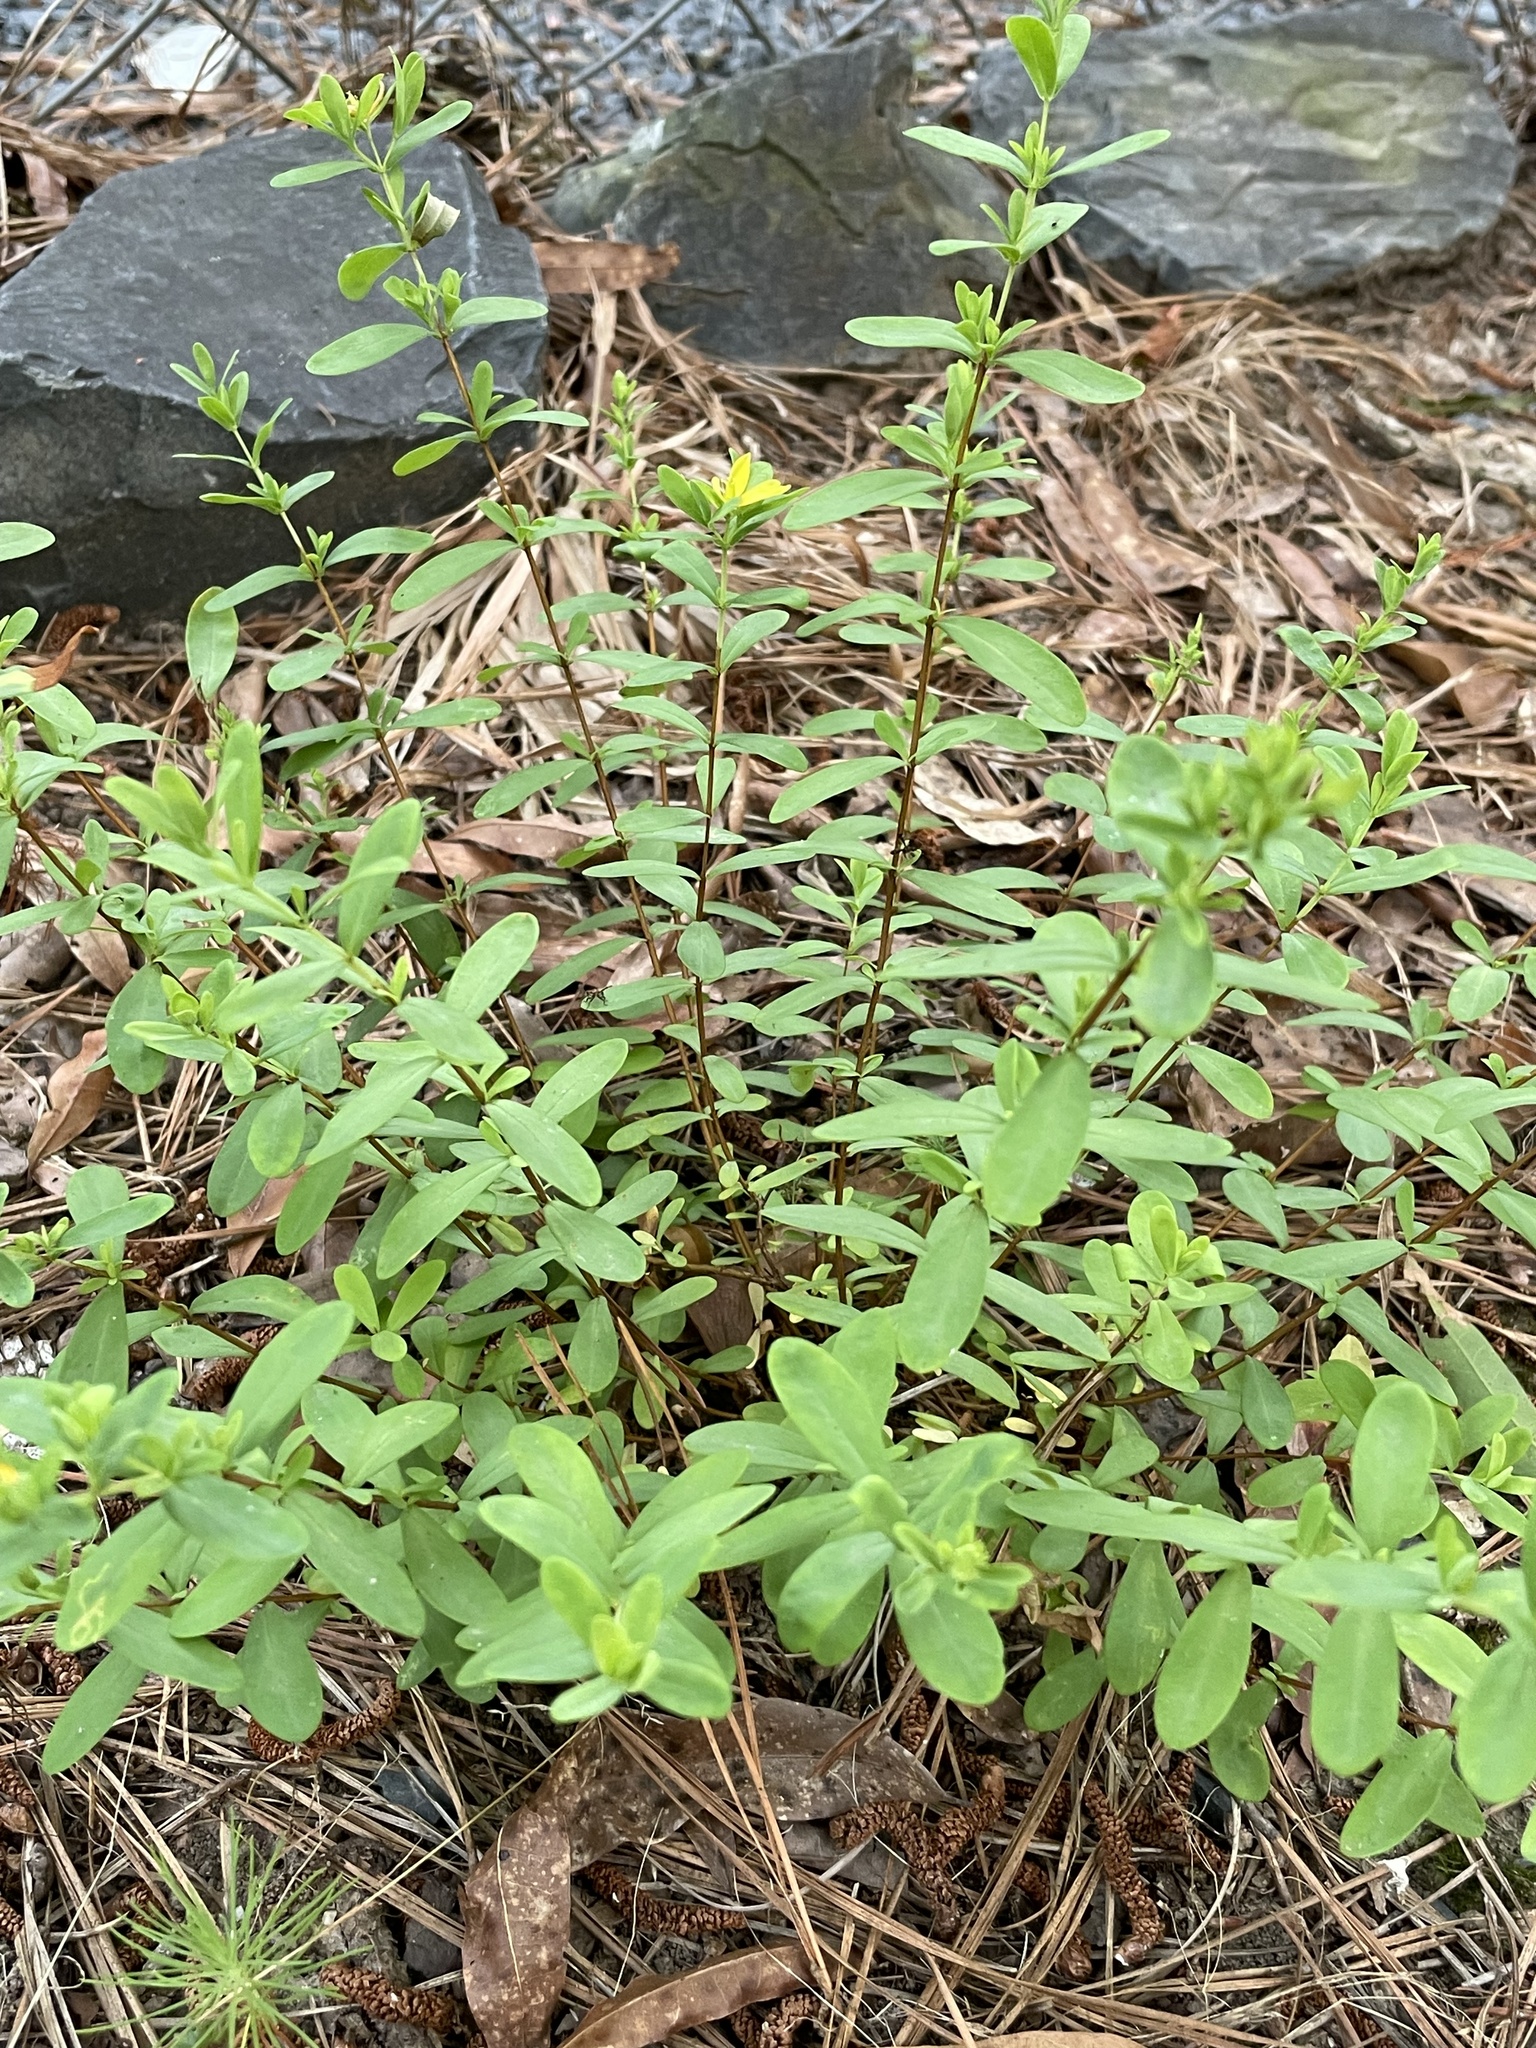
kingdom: Plantae
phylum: Tracheophyta
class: Magnoliopsida
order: Malpighiales
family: Hypericaceae
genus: Hypericum
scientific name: Hypericum hypericoides
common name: St. andrew's cross
